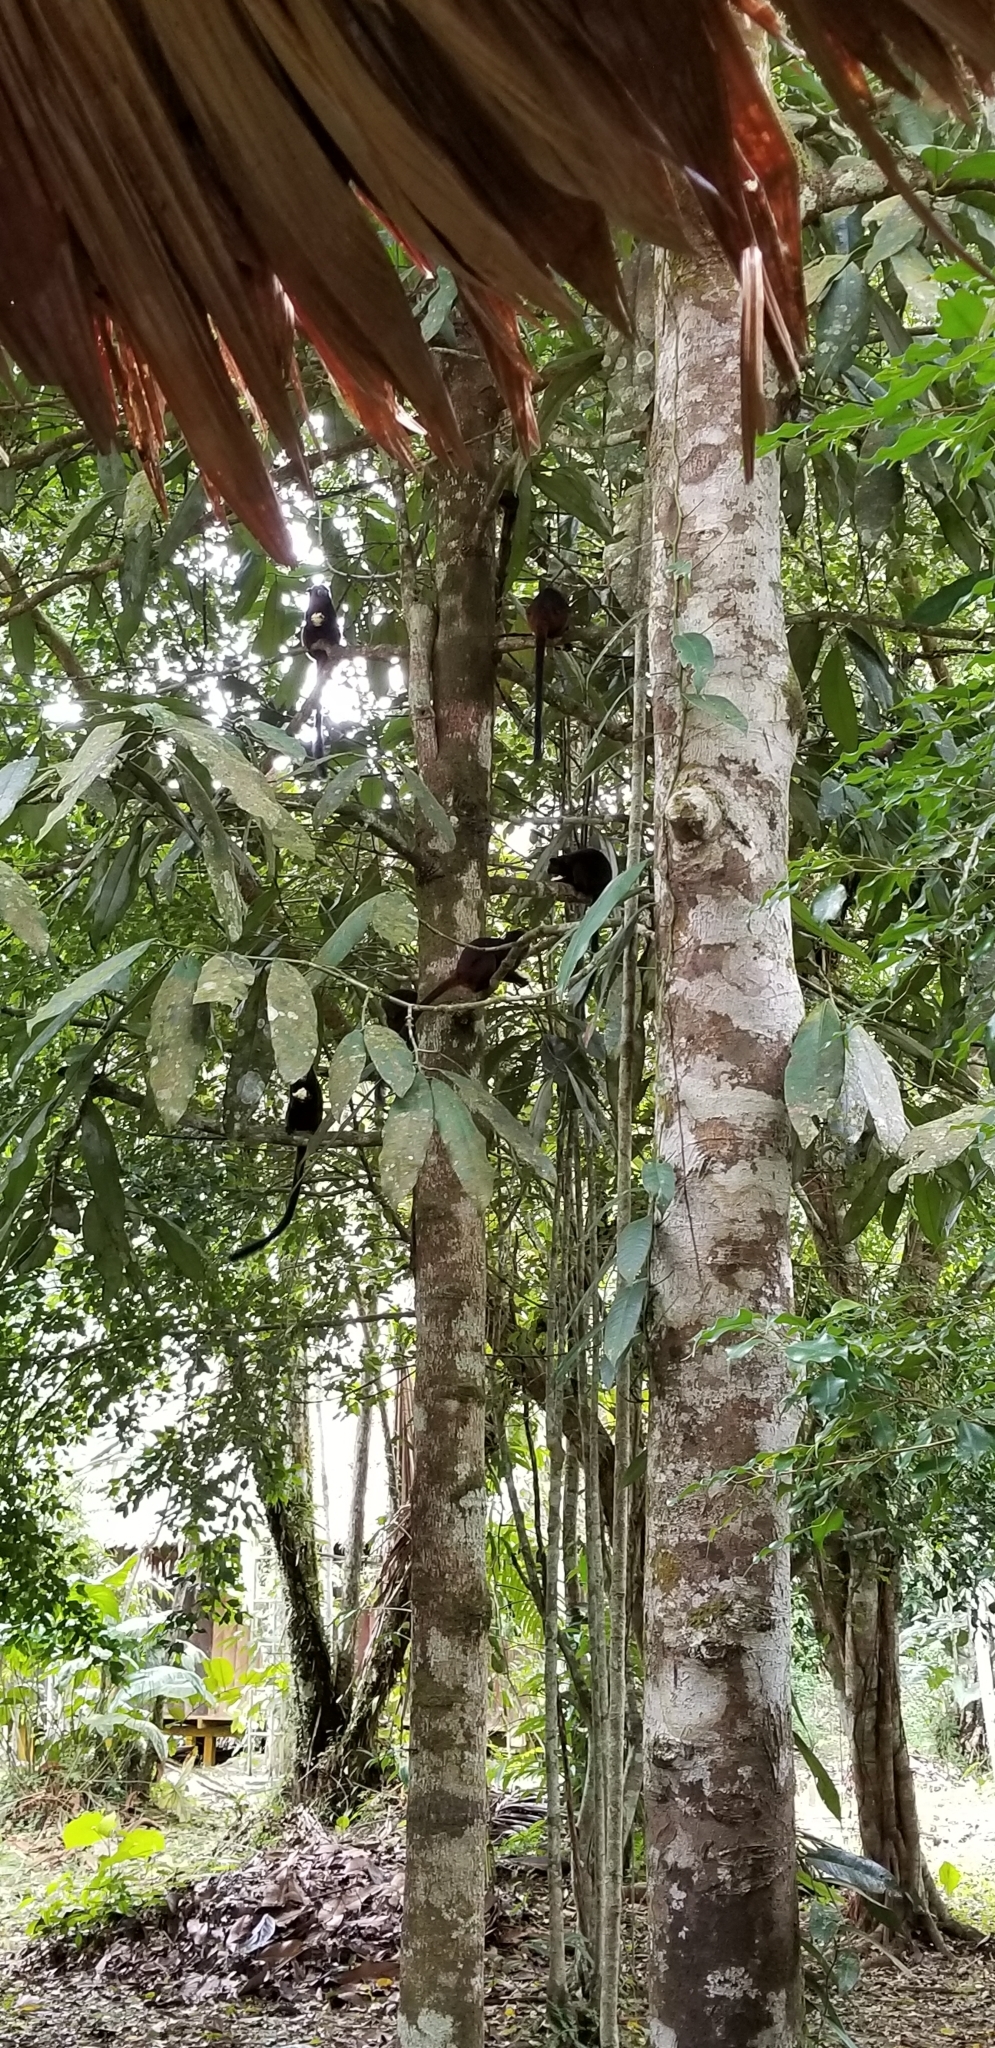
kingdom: Animalia
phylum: Chordata
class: Mammalia
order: Primates
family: Callitrichidae
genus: Leontocebus
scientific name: Leontocebus nigricollis
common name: Black-mantled tamarin
